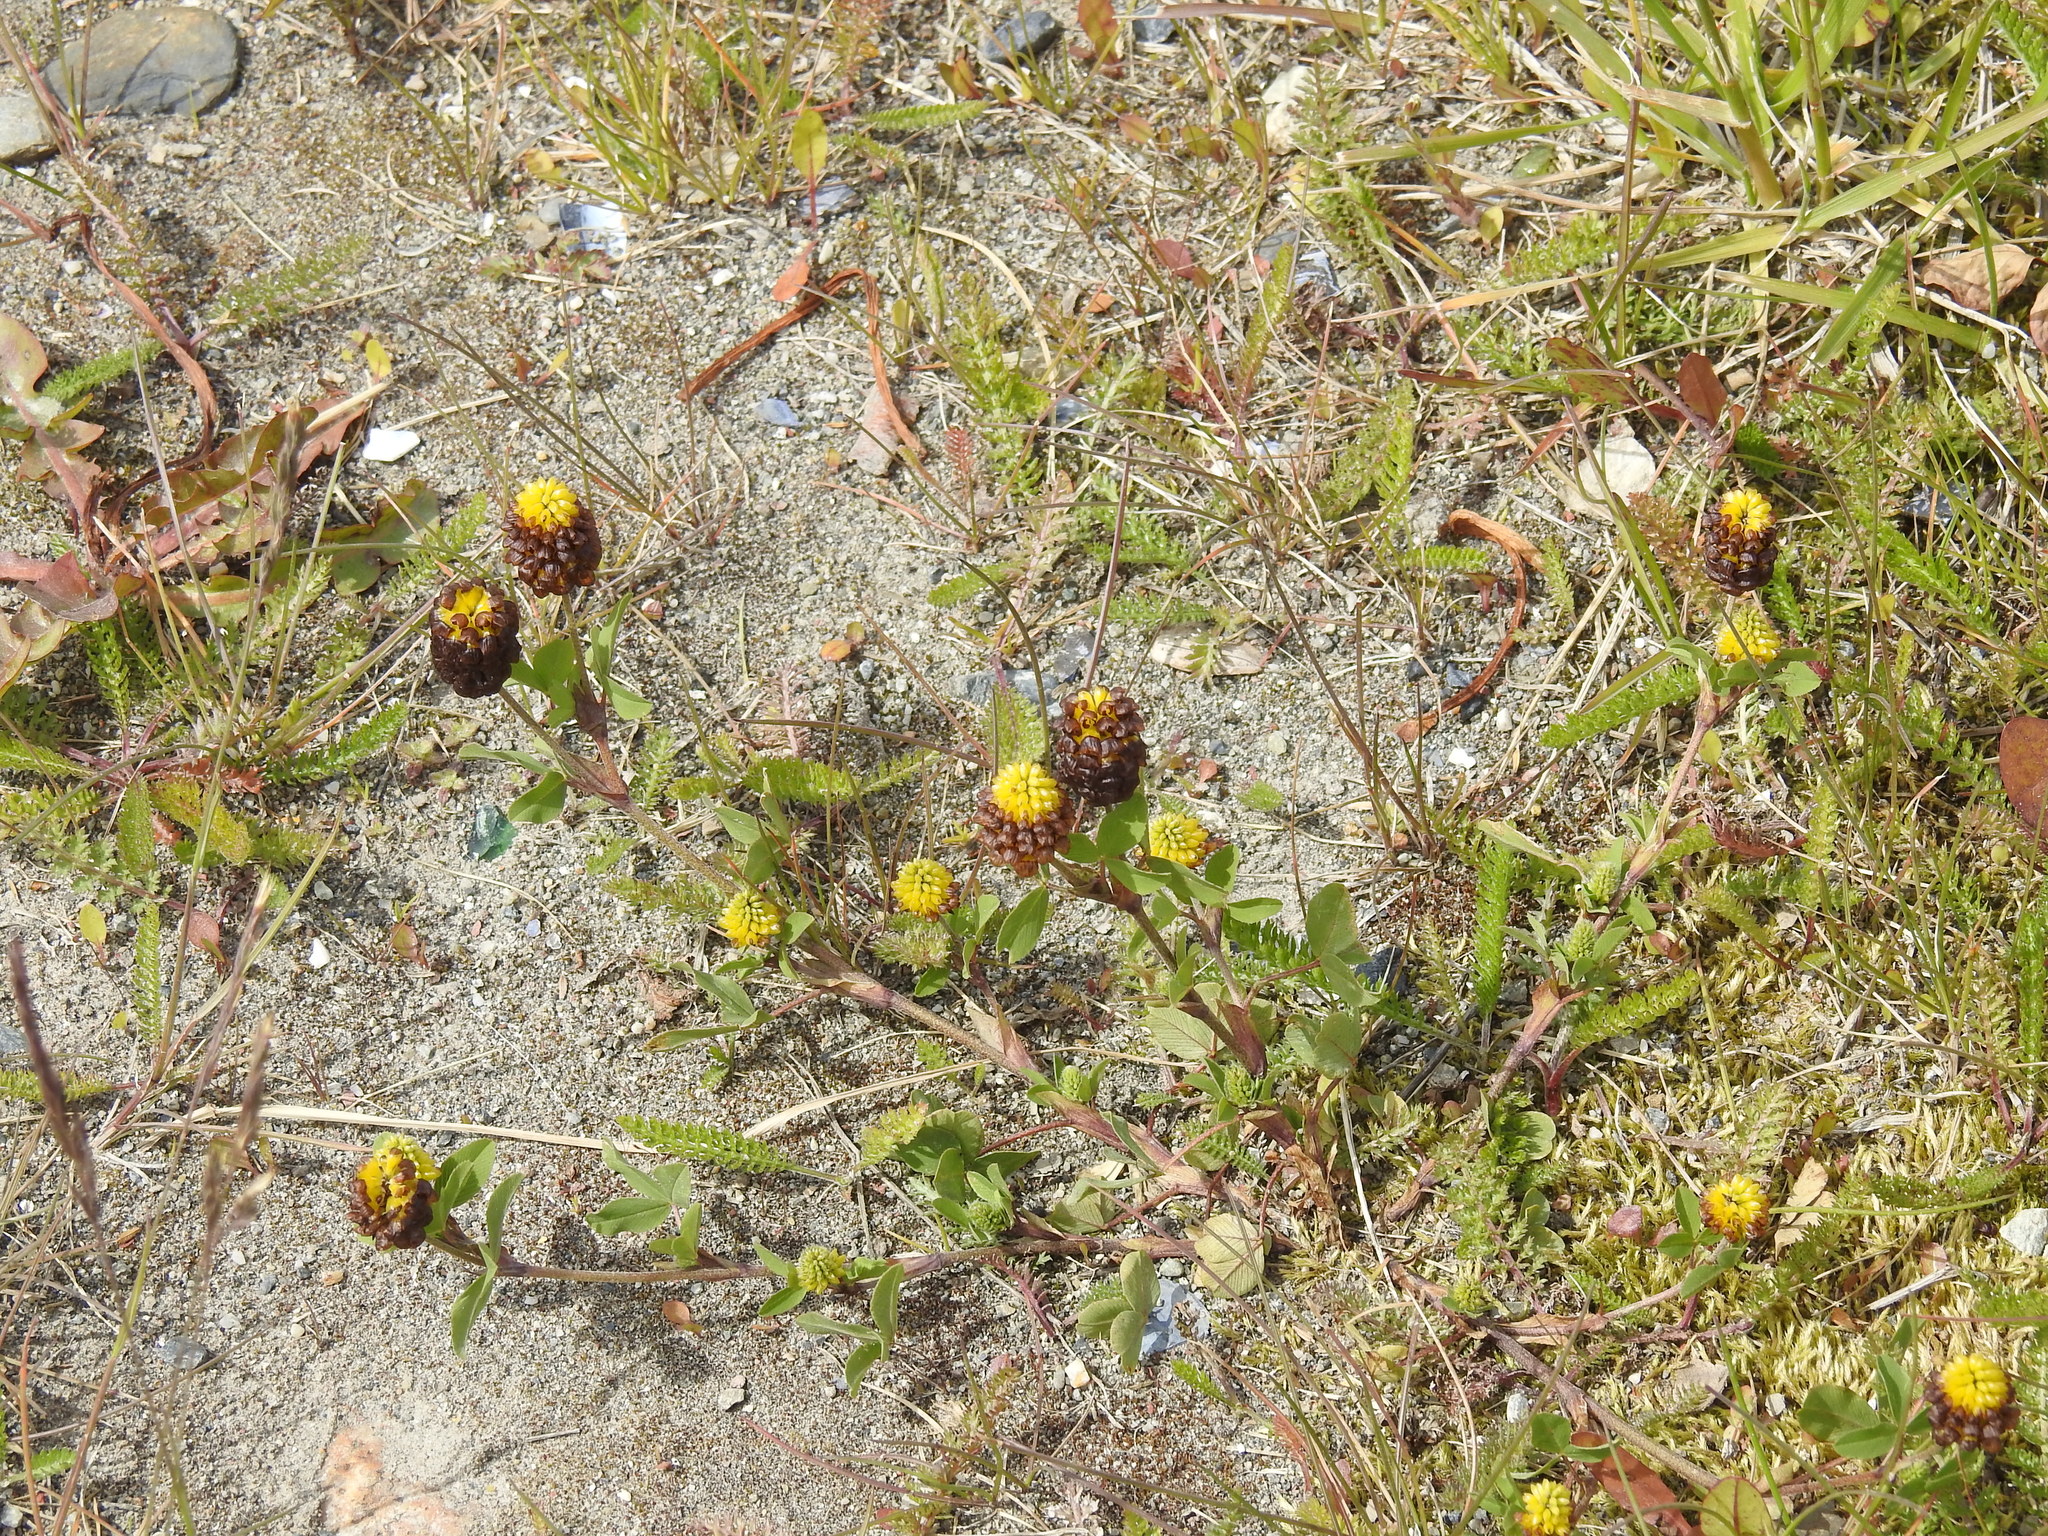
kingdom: Plantae
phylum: Tracheophyta
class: Magnoliopsida
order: Fabales
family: Fabaceae
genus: Trifolium
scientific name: Trifolium spadiceum
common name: Brown moor clover
